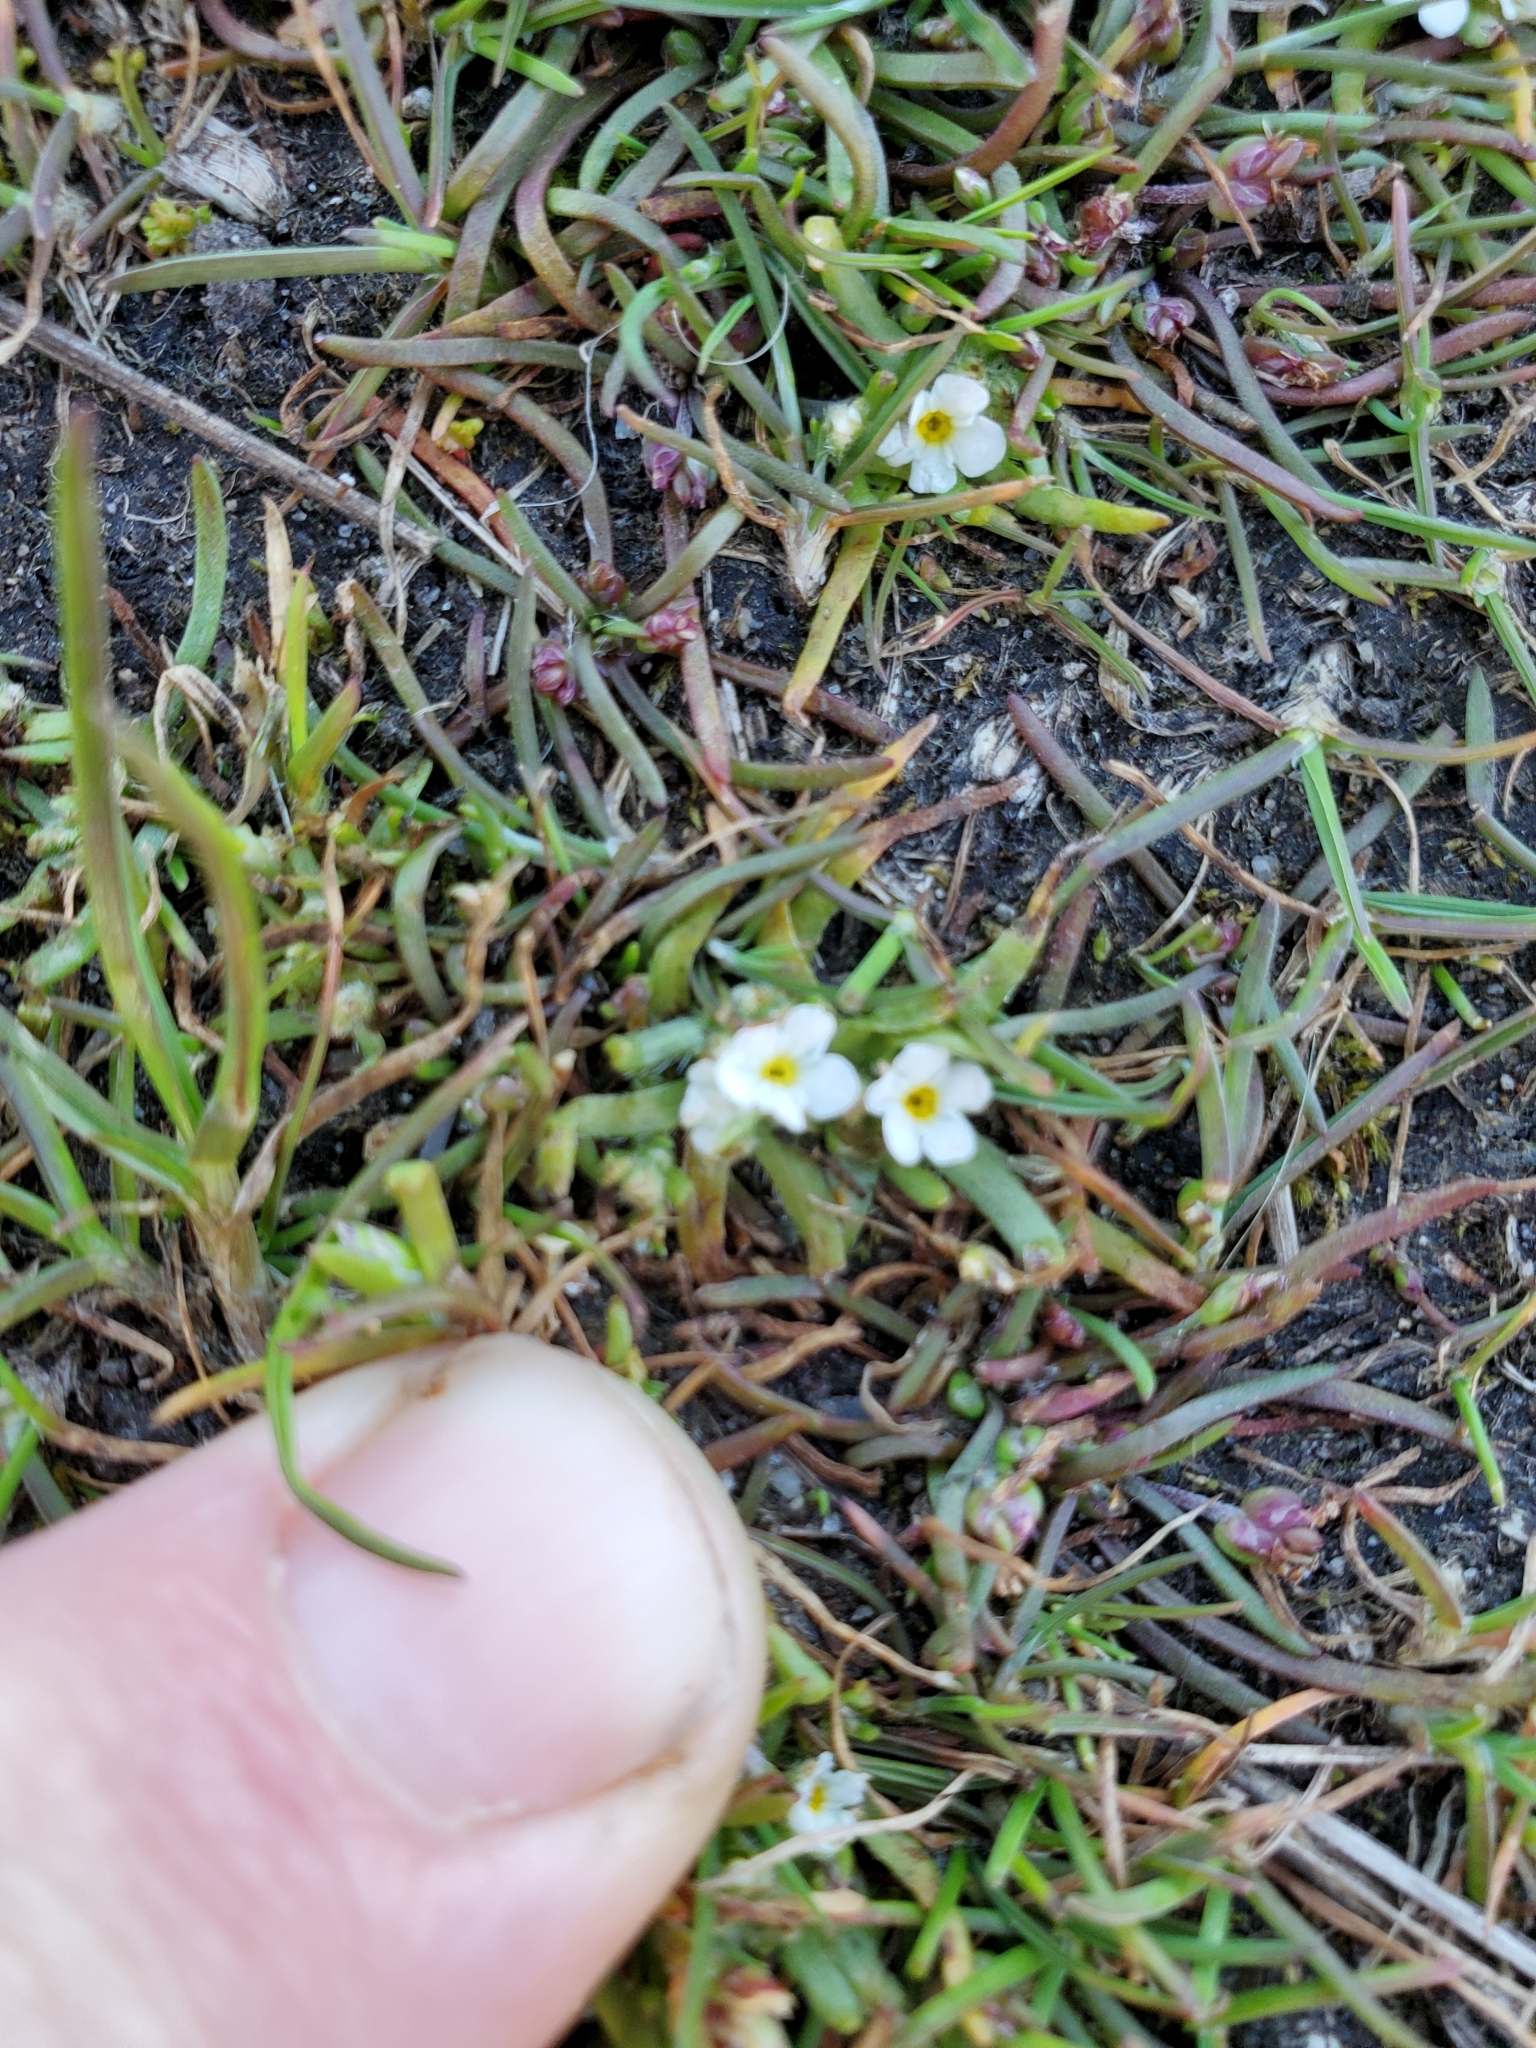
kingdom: Plantae
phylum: Tracheophyta
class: Magnoliopsida
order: Boraginales
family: Boraginaceae
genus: Plagiobothrys
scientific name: Plagiobothrys scouleri
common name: White forget-me-not
